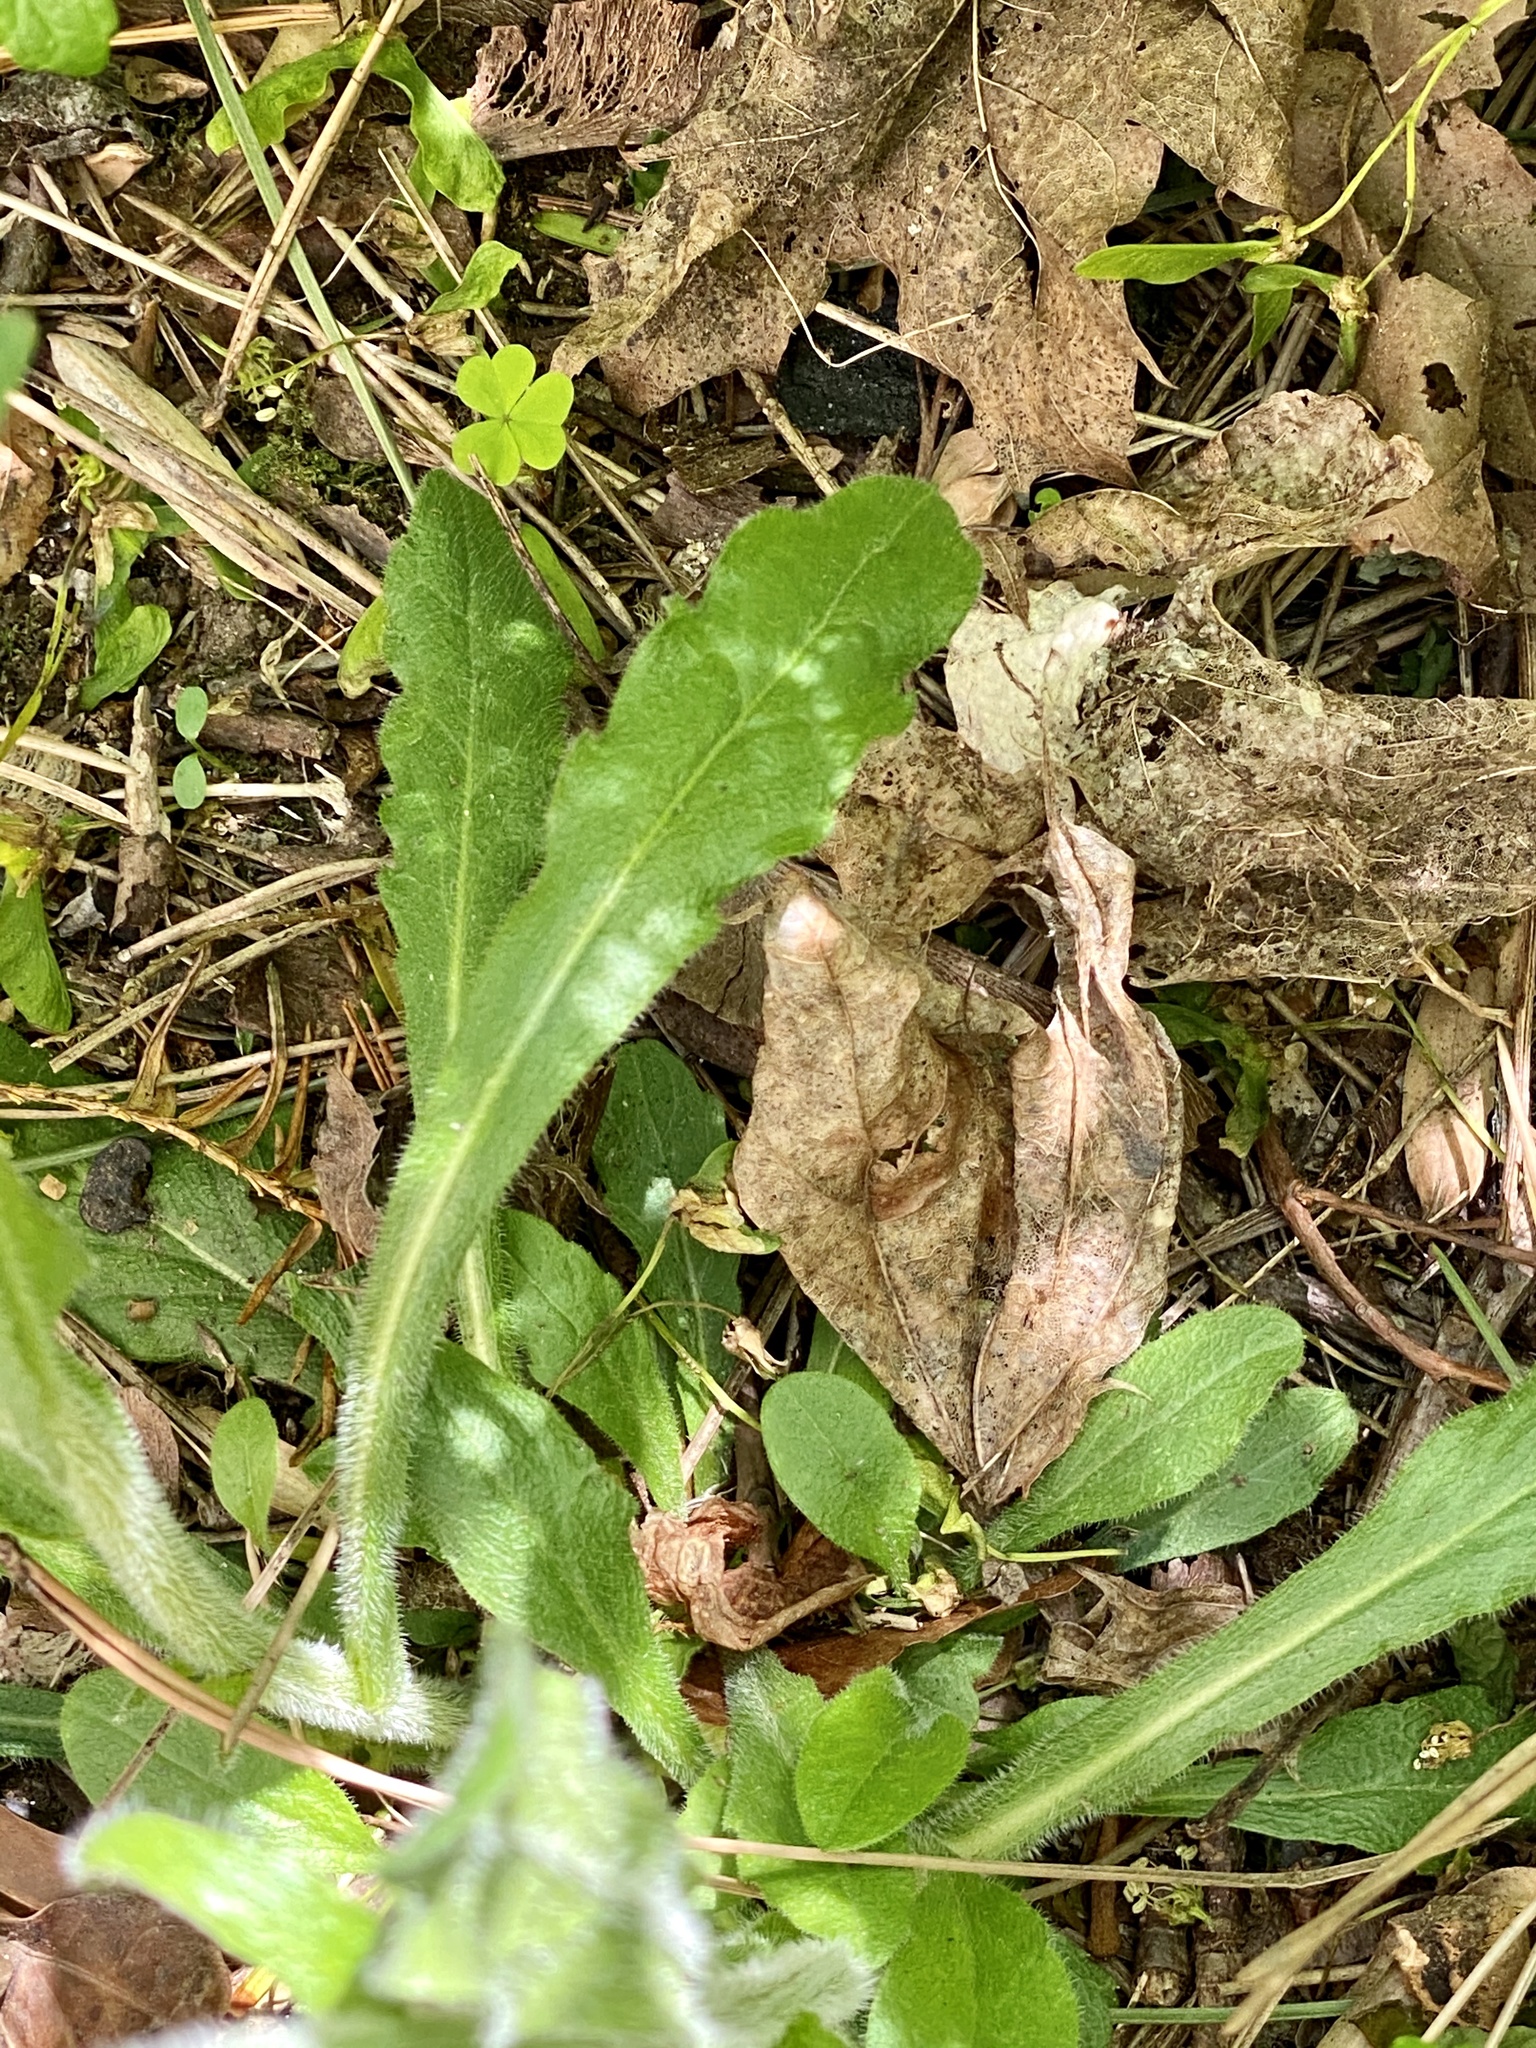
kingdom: Plantae
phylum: Tracheophyta
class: Magnoliopsida
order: Asterales
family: Asteraceae
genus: Erigeron
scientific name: Erigeron philadelphicus
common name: Robin's-plantain
